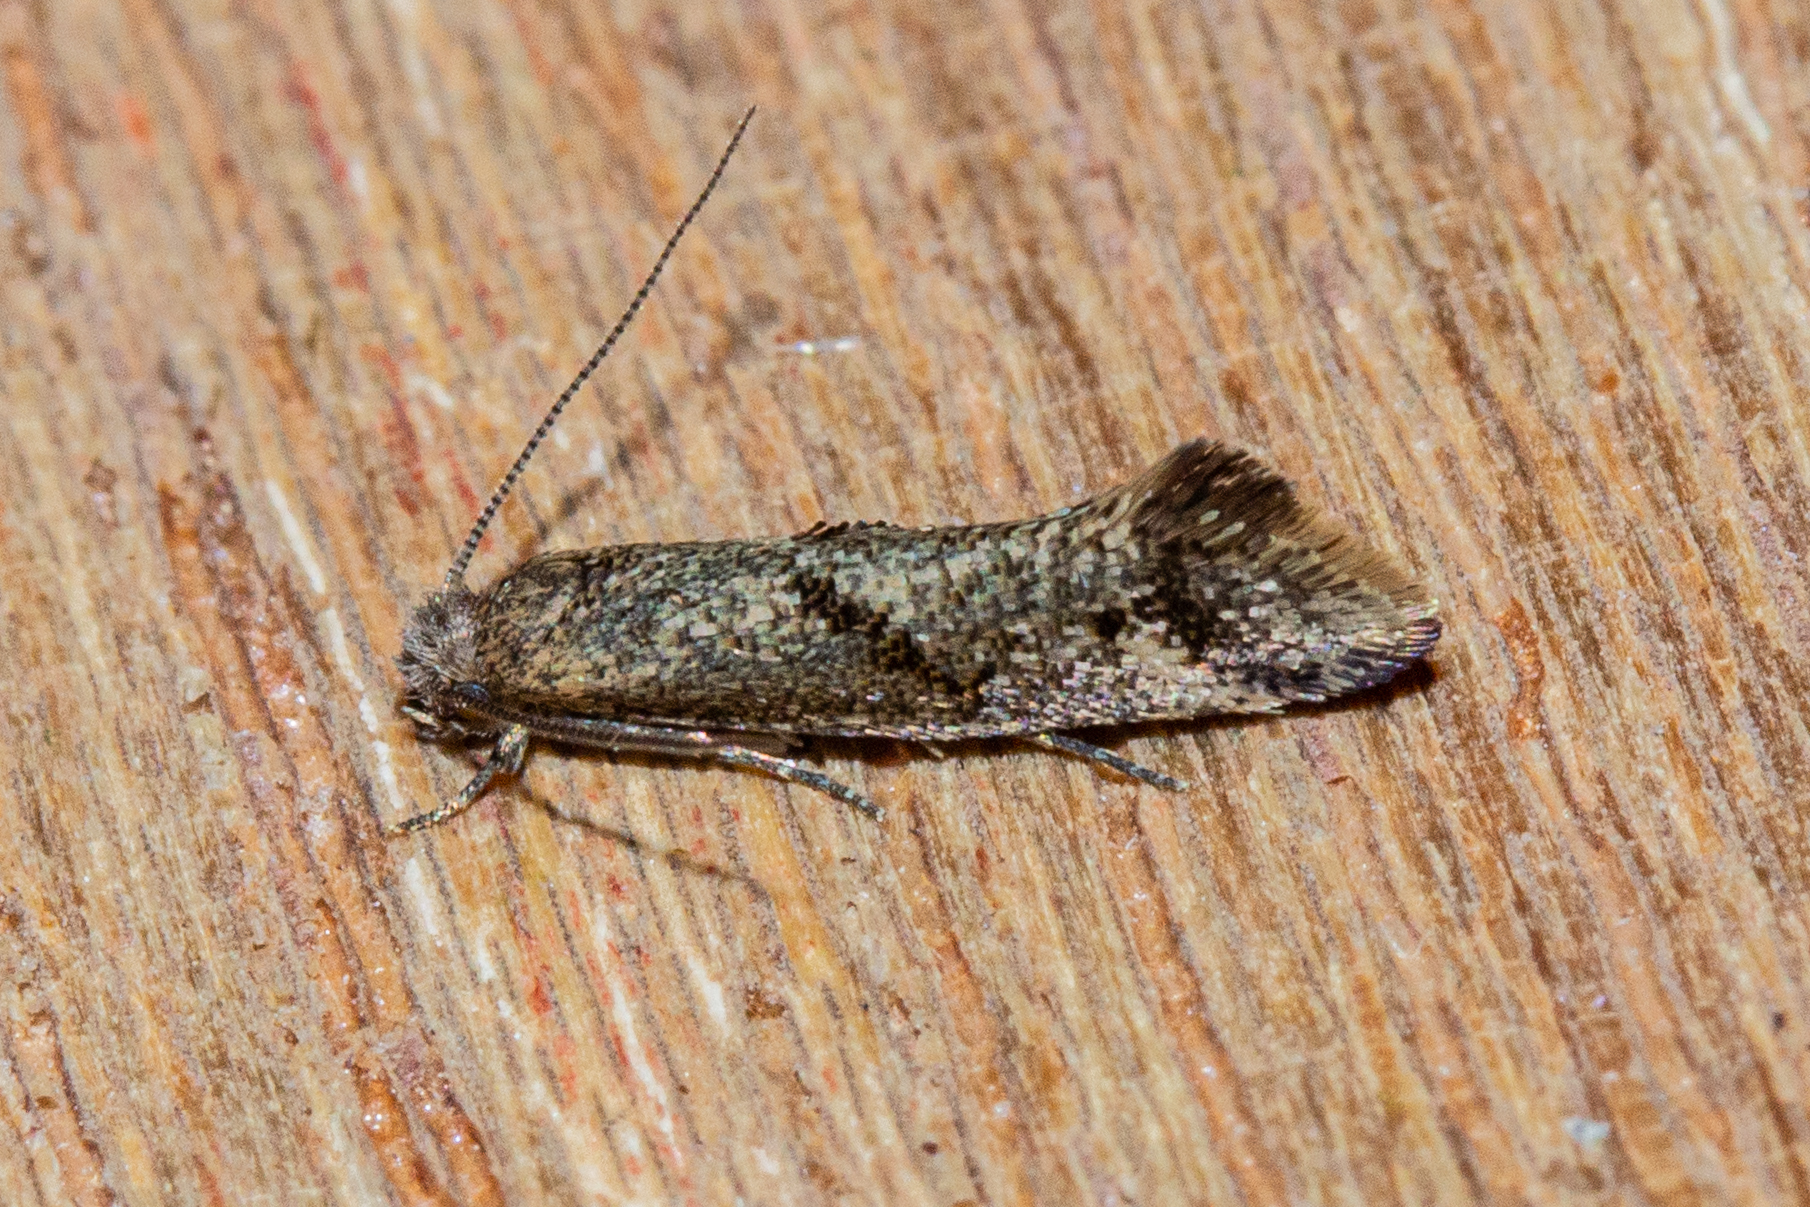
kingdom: Animalia
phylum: Arthropoda
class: Insecta
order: Lepidoptera
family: Tineidae
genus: Tinea
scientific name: Tinea mochlota
